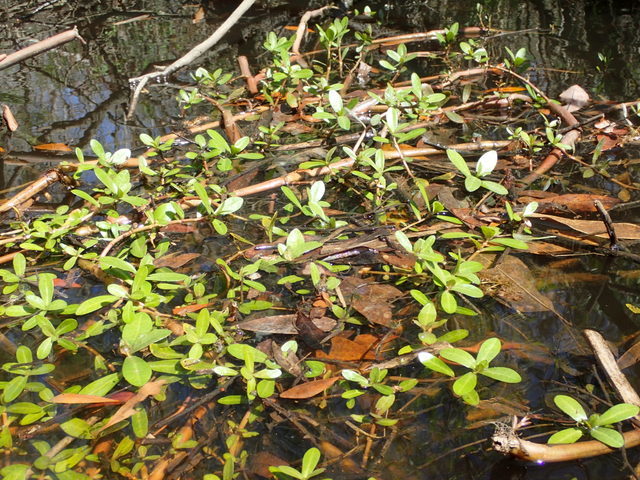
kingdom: Plantae
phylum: Tracheophyta
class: Magnoliopsida
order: Caryophyllales
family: Amaranthaceae
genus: Alternanthera
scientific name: Alternanthera philoxeroides
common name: Alligatorweed
